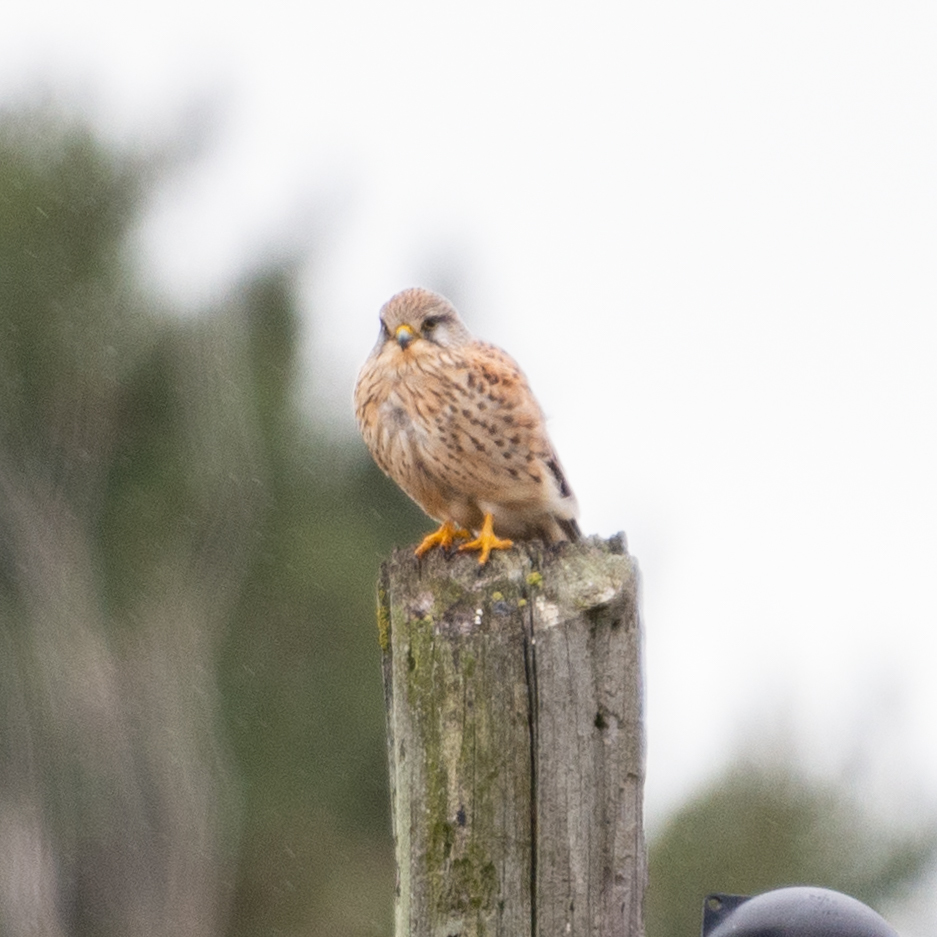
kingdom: Animalia
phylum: Chordata
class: Aves
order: Falconiformes
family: Falconidae
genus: Falco
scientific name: Falco tinnunculus
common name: Common kestrel
